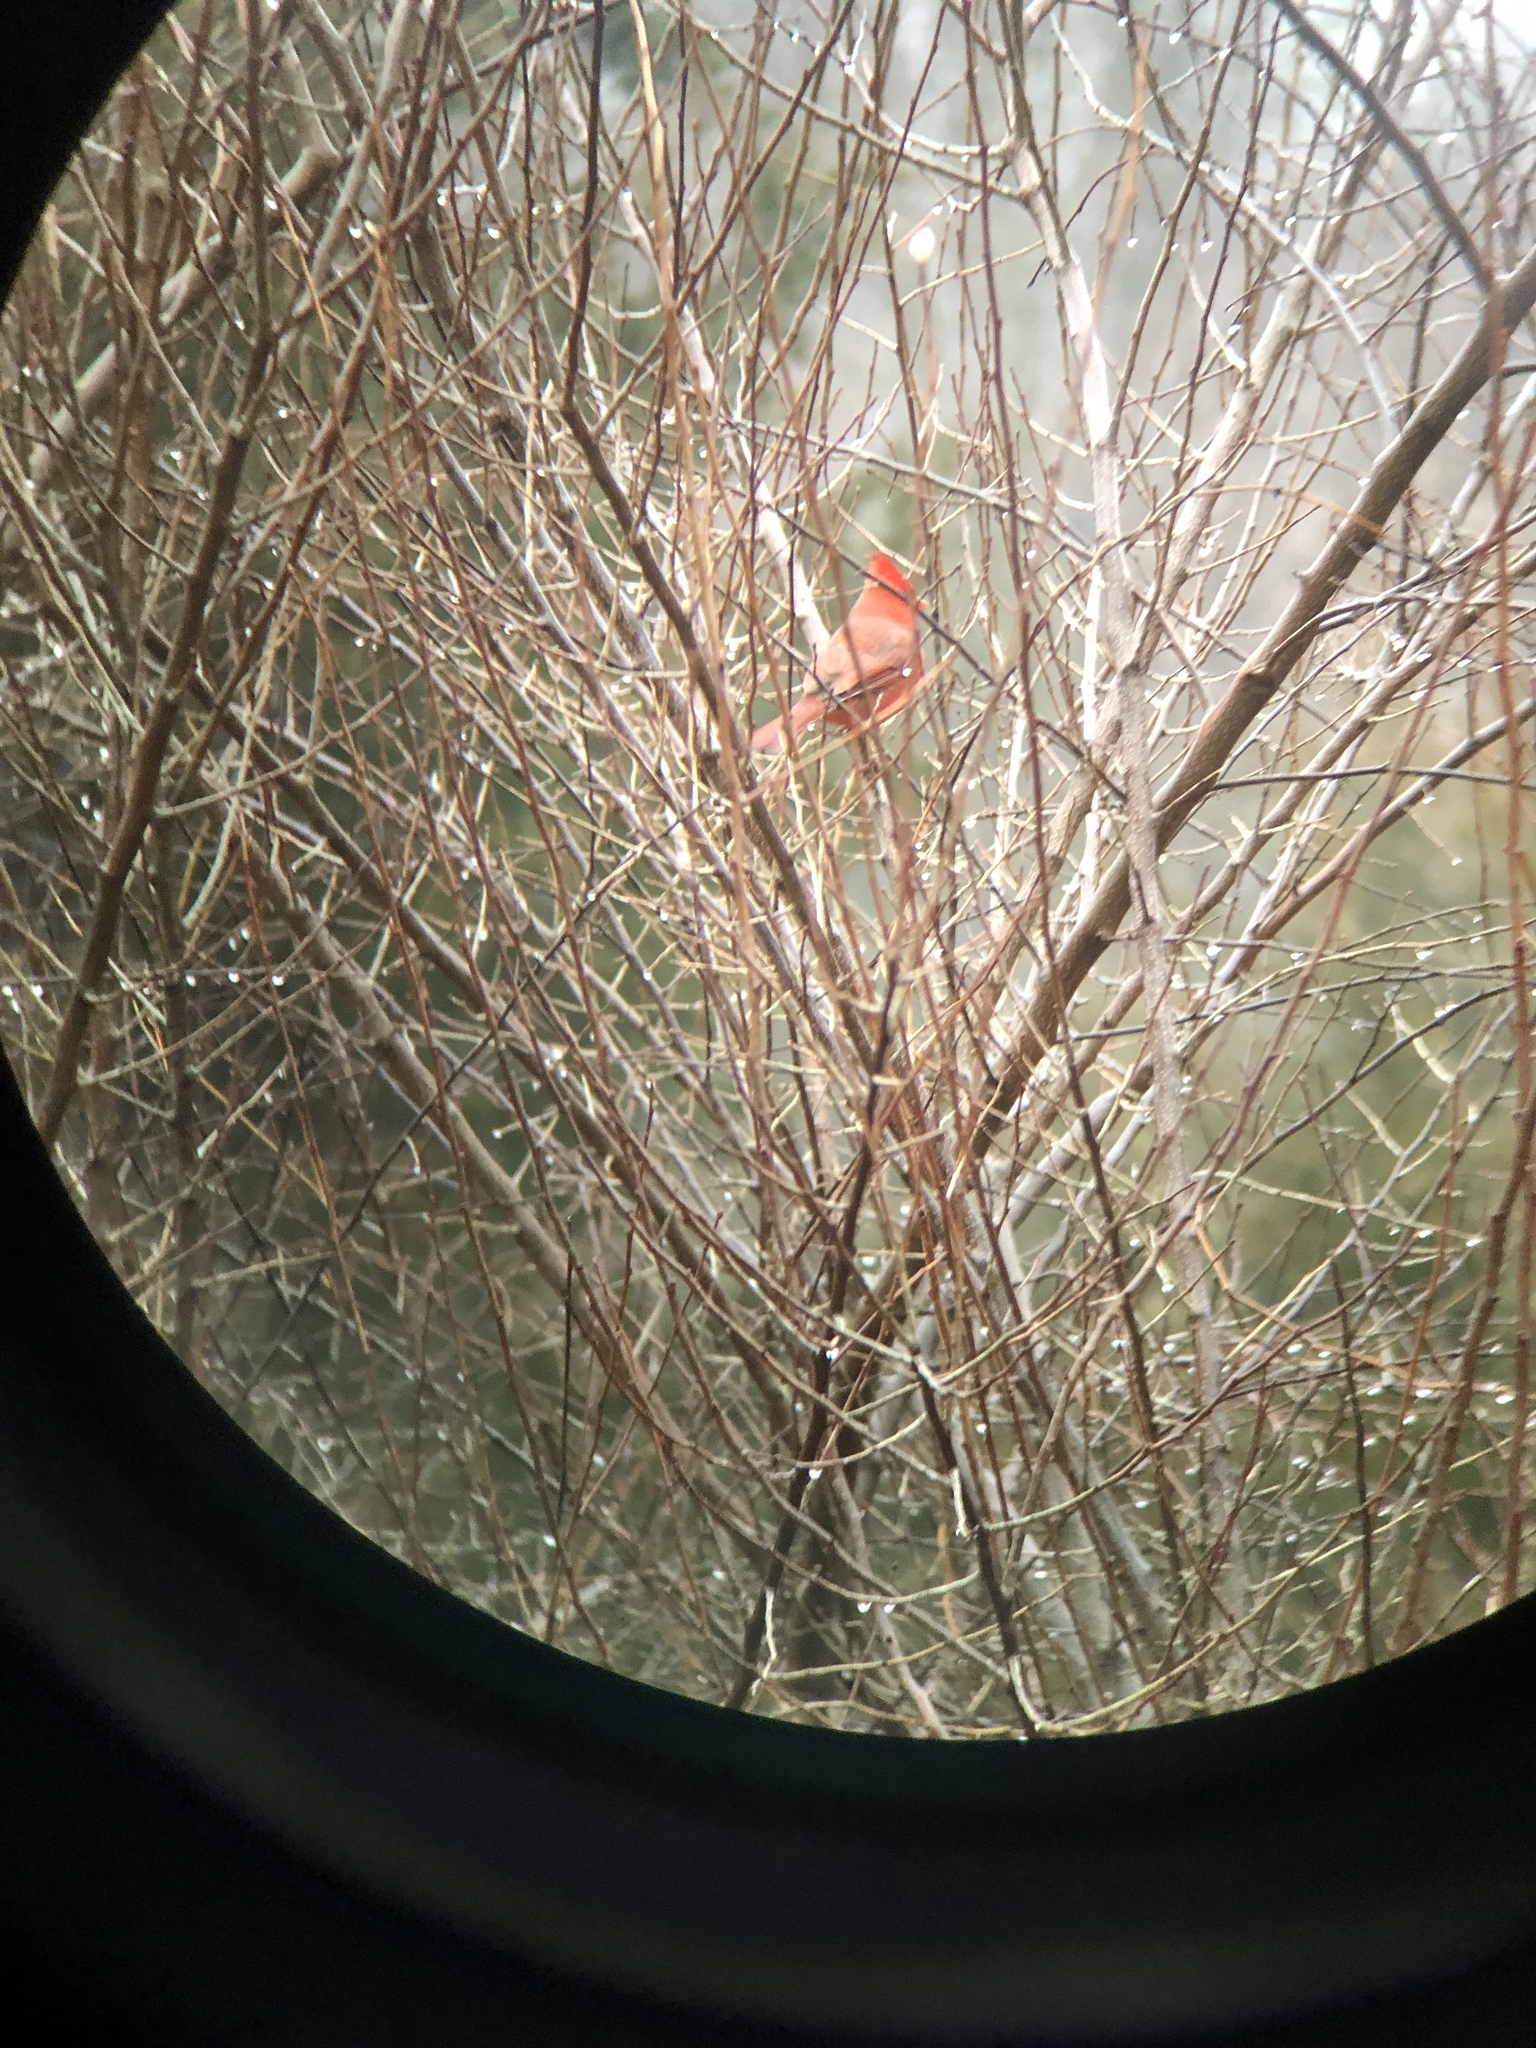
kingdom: Animalia
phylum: Chordata
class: Aves
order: Passeriformes
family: Cardinalidae
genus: Cardinalis
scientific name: Cardinalis cardinalis
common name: Northern cardinal
